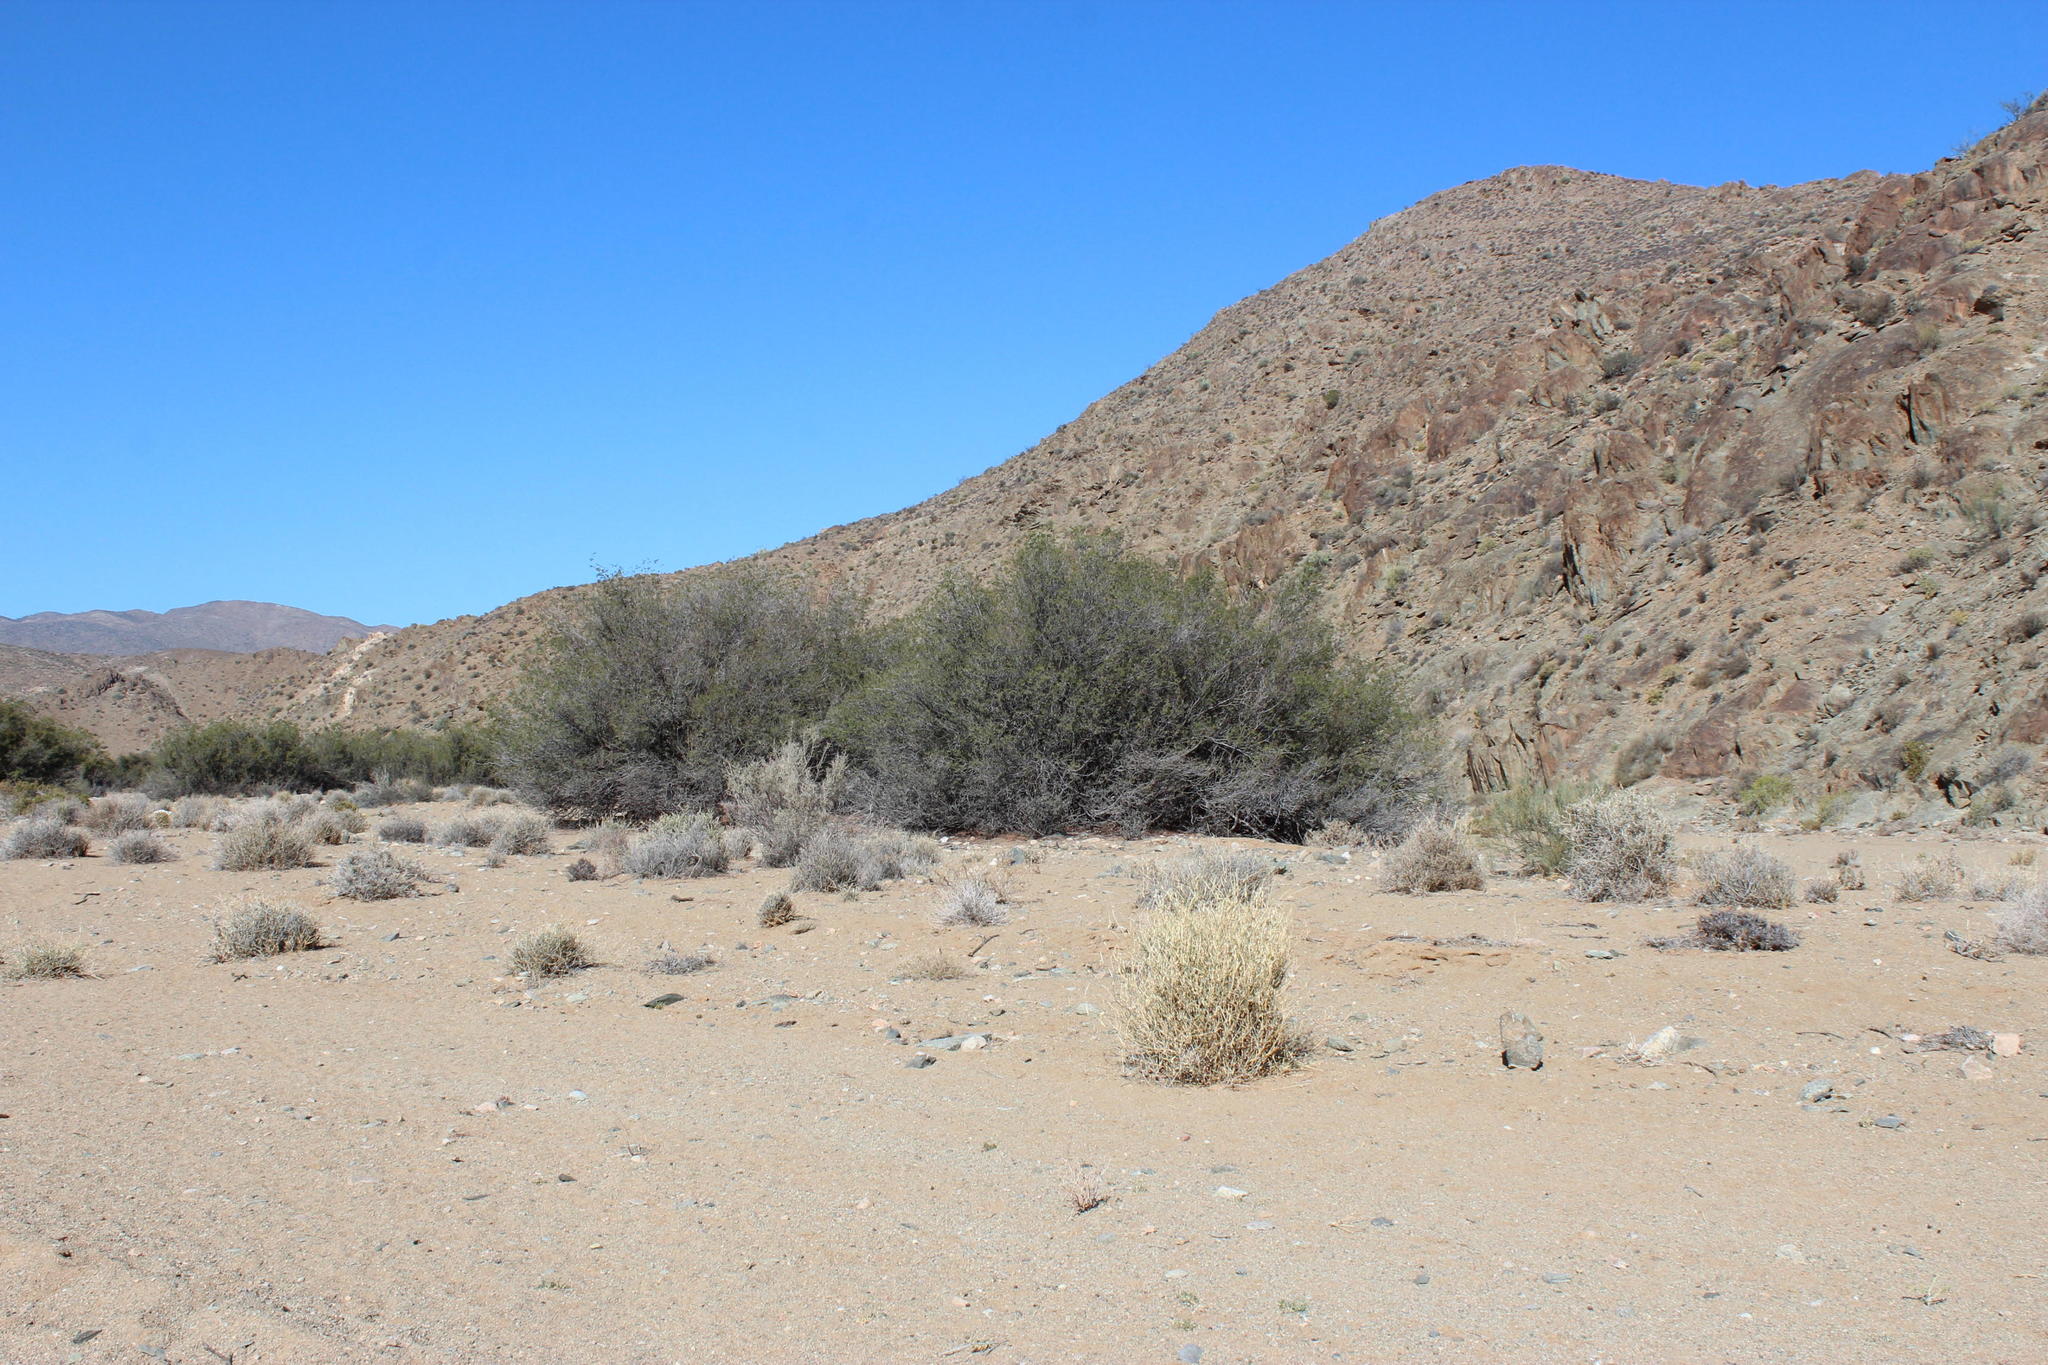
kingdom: Plantae
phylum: Tracheophyta
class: Magnoliopsida
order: Fabales
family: Fabaceae
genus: Schotia
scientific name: Schotia afra
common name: Hottentot's bean
